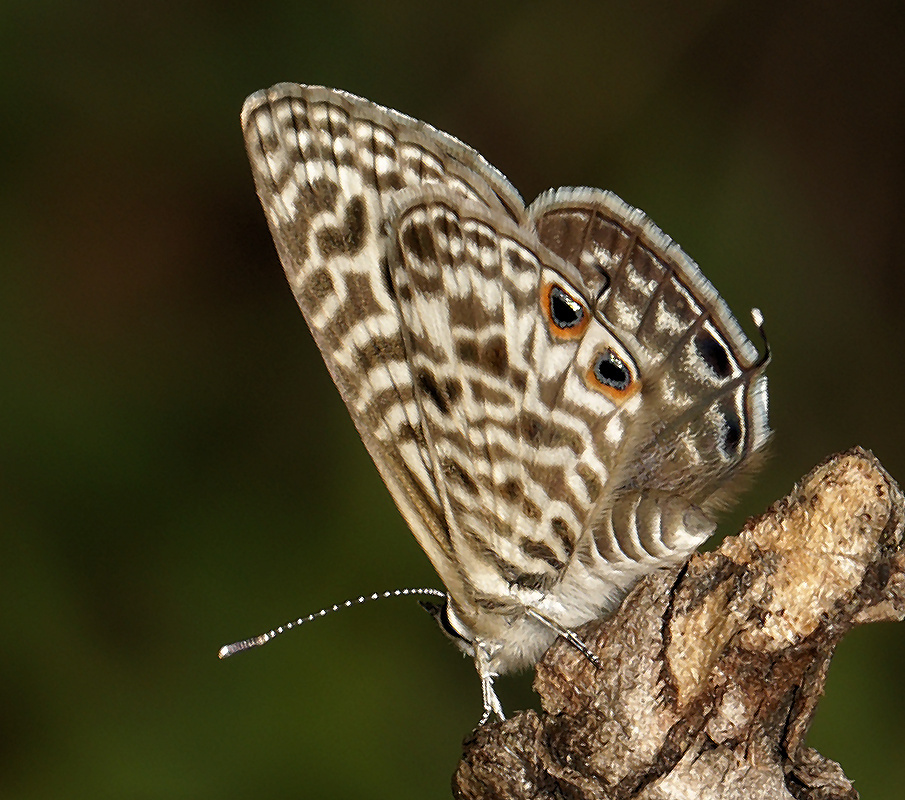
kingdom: Animalia
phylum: Arthropoda
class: Insecta
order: Lepidoptera
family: Lycaenidae
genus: Leptotes
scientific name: Leptotes
